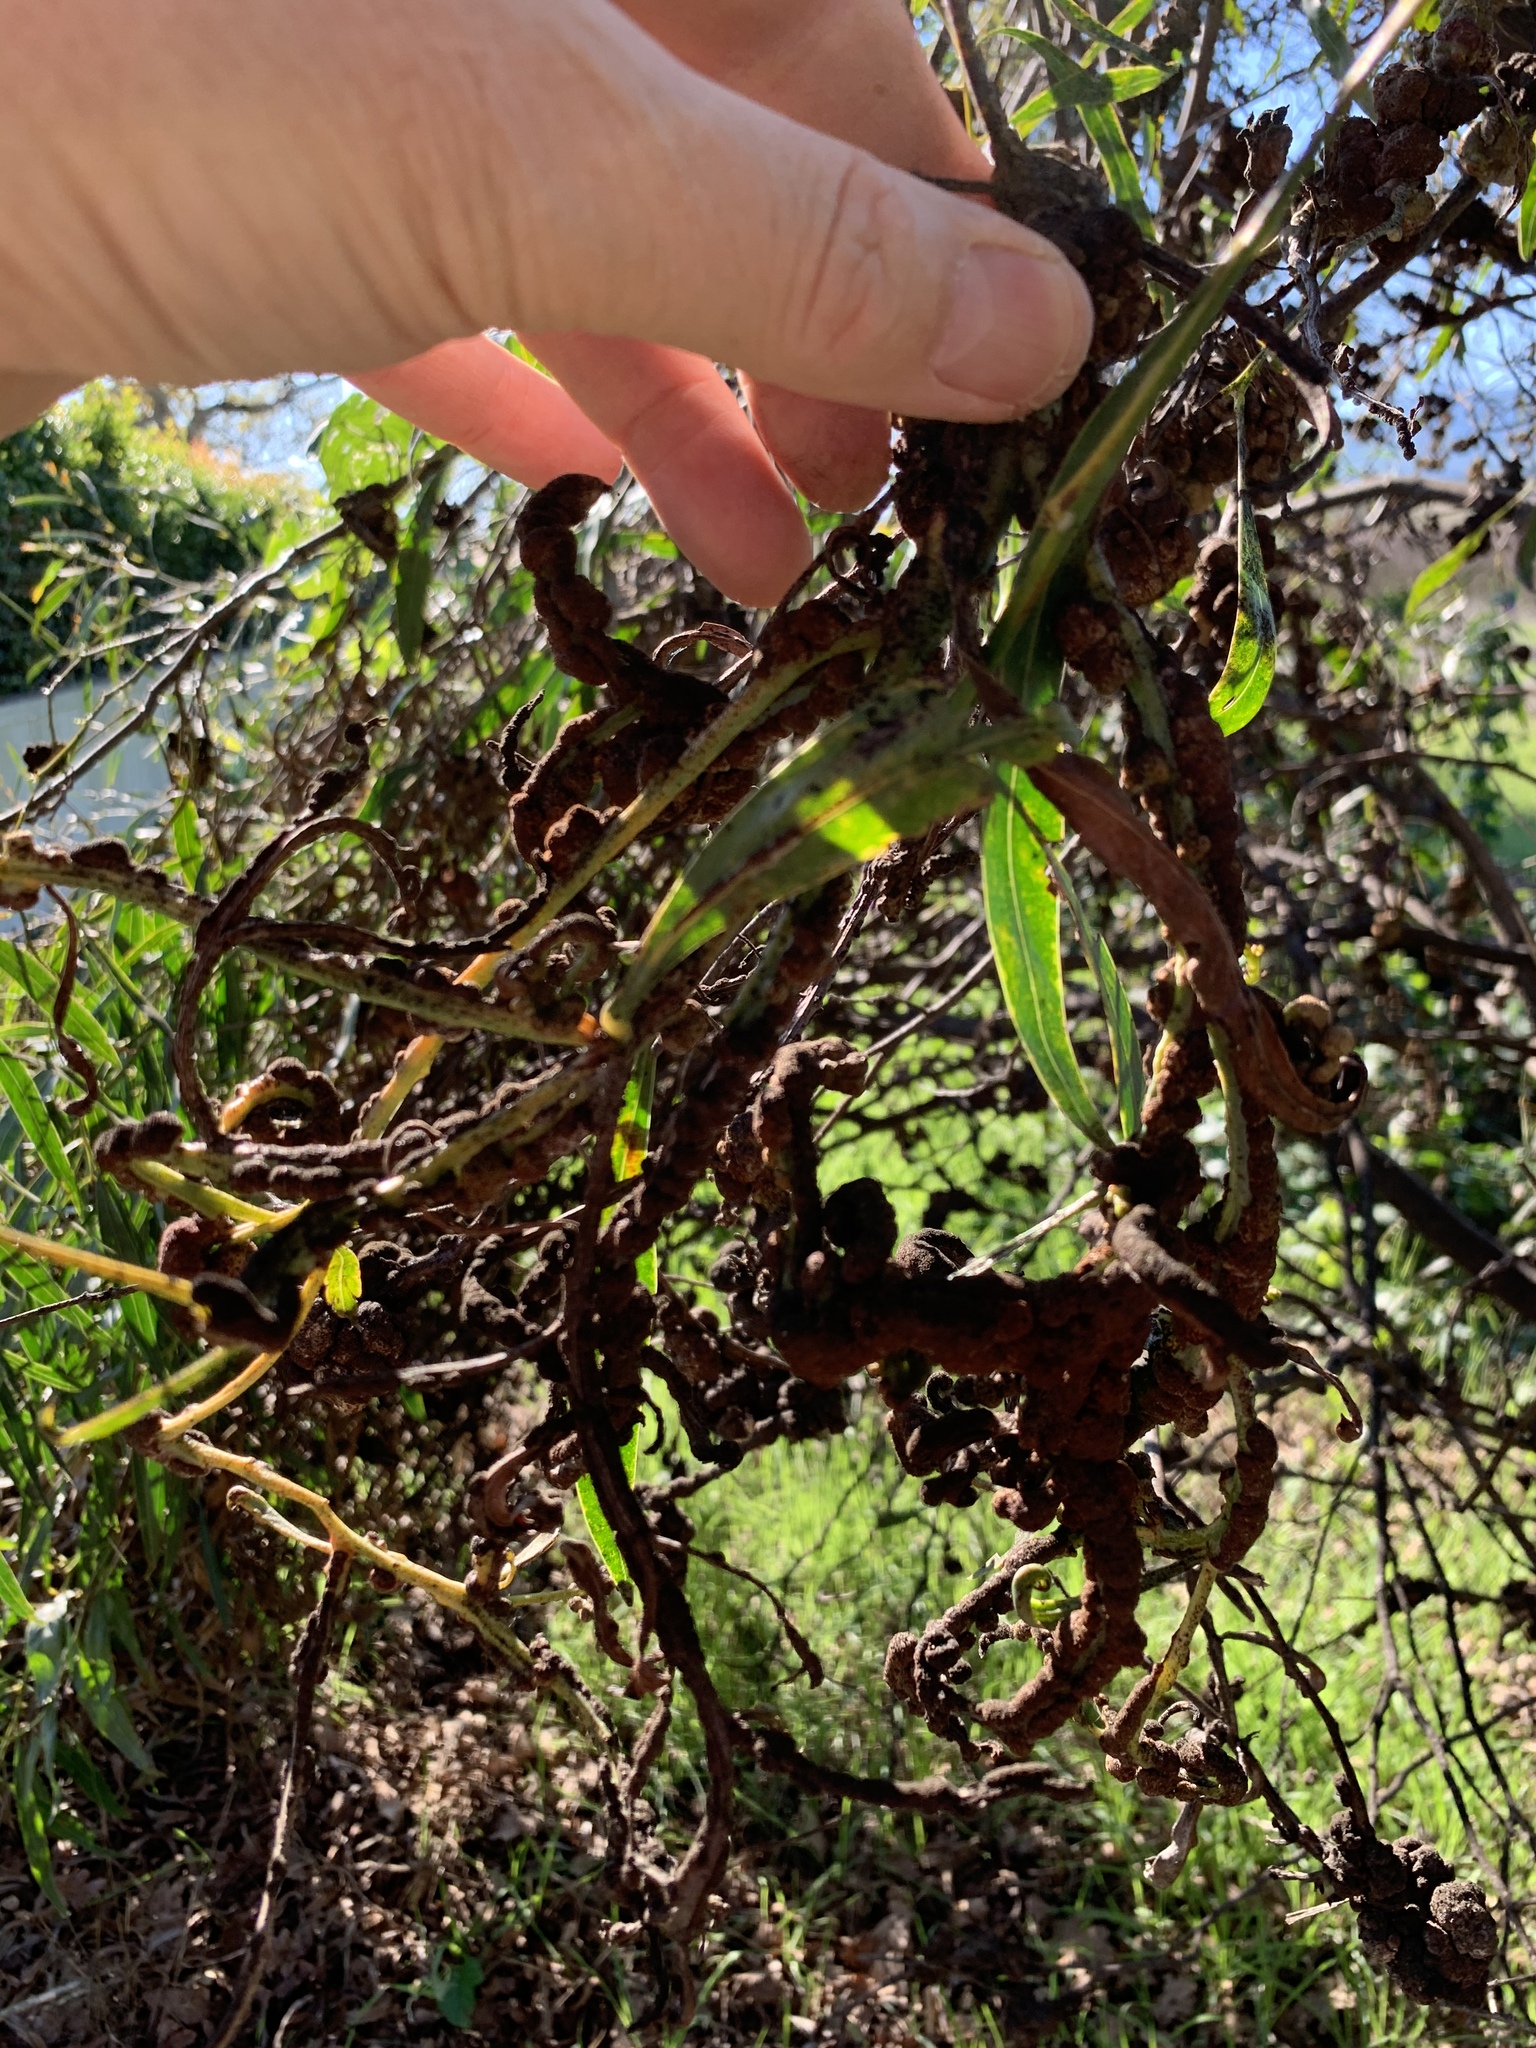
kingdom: Fungi
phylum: Basidiomycota
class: Pucciniomycetes
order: Pucciniales
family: Uromycladiaceae
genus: Uromycladium
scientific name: Uromycladium morrisii
